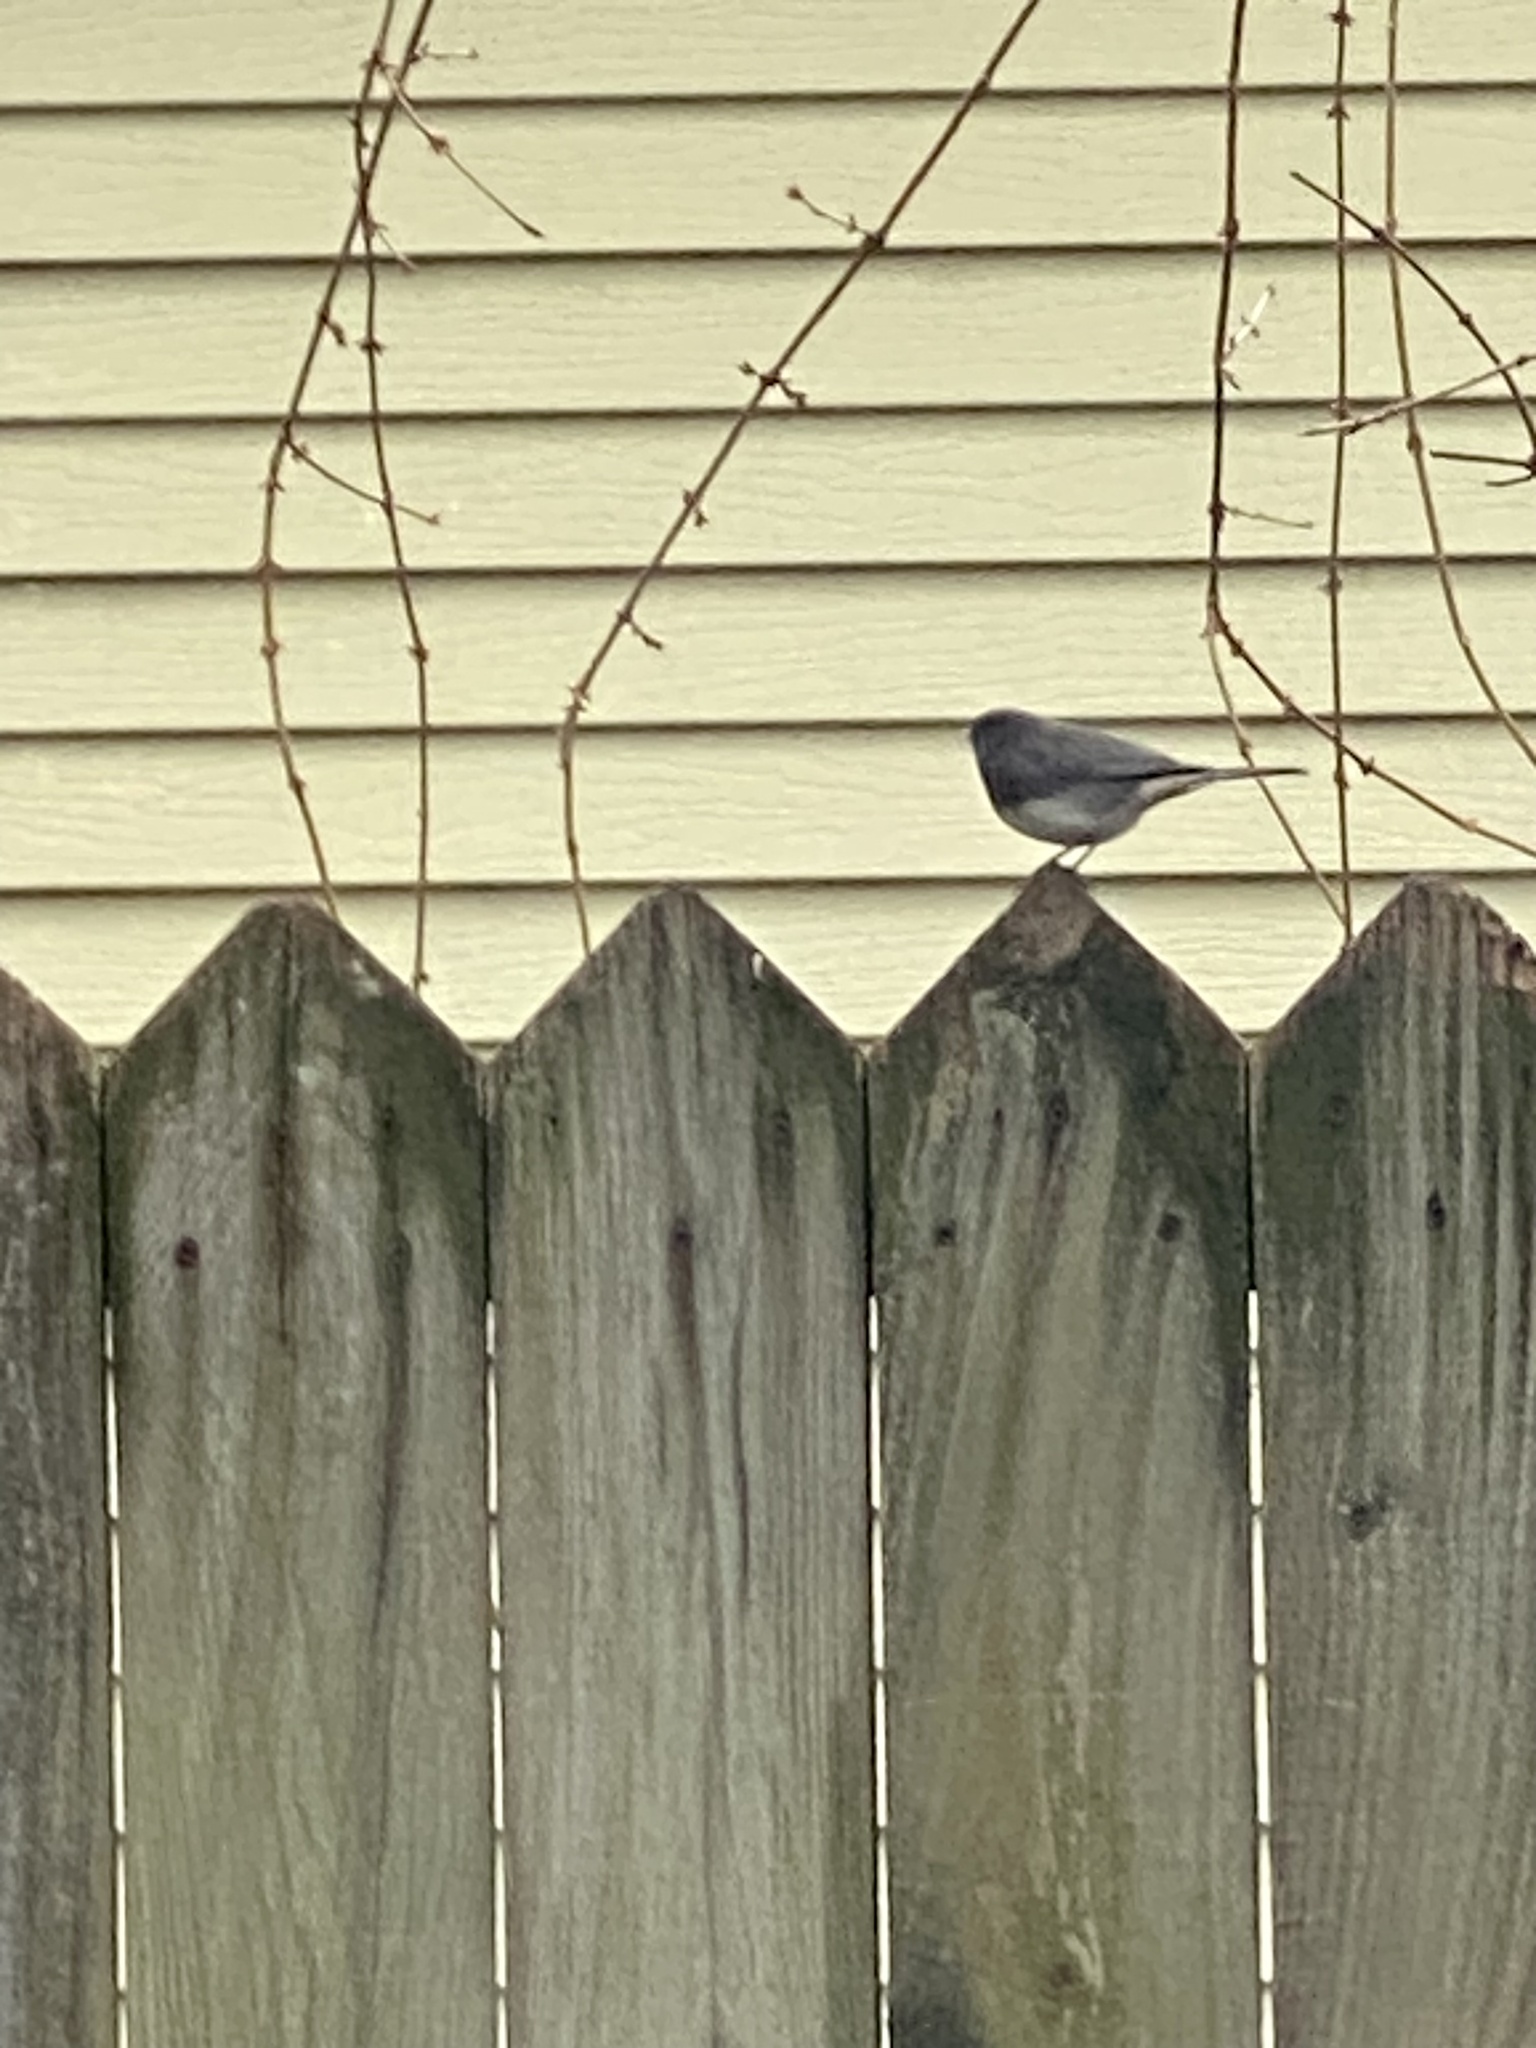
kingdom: Animalia
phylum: Chordata
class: Aves
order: Passeriformes
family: Passerellidae
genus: Junco
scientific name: Junco hyemalis
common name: Dark-eyed junco
